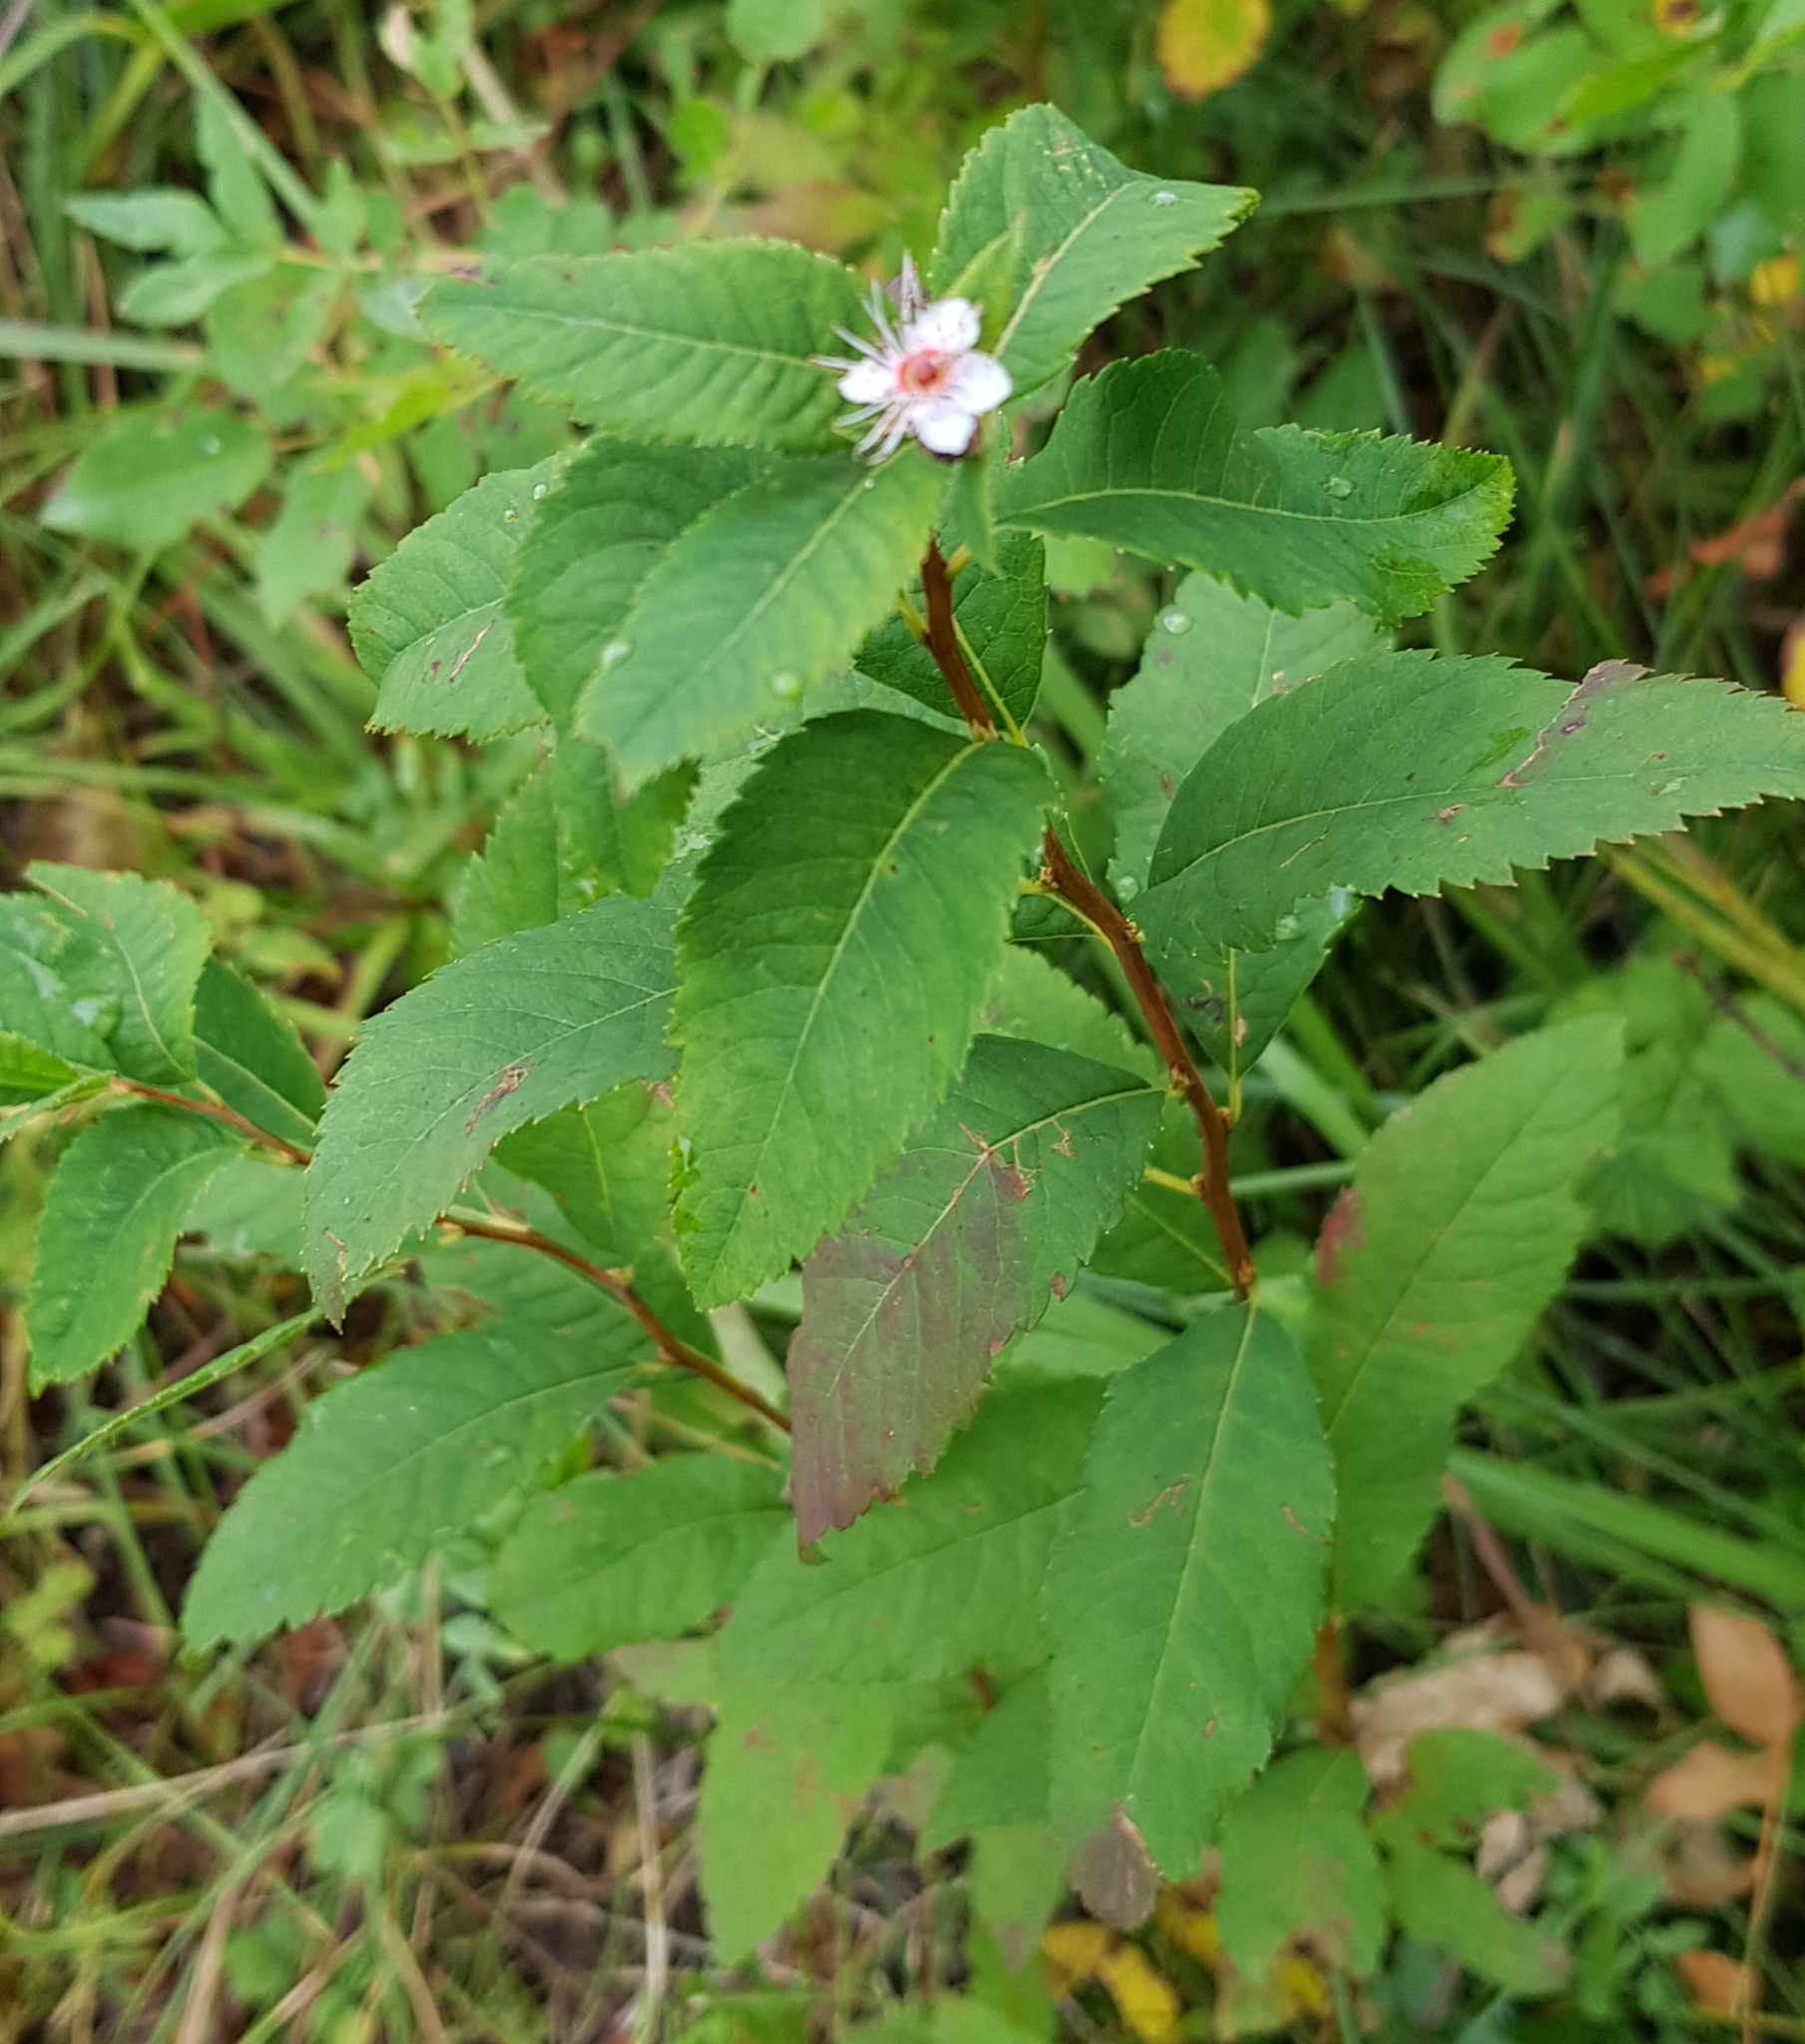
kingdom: Plantae
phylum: Tracheophyta
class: Magnoliopsida
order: Rosales
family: Rosaceae
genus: Spiraea
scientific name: Spiraea salicifolia
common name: Bridewort
